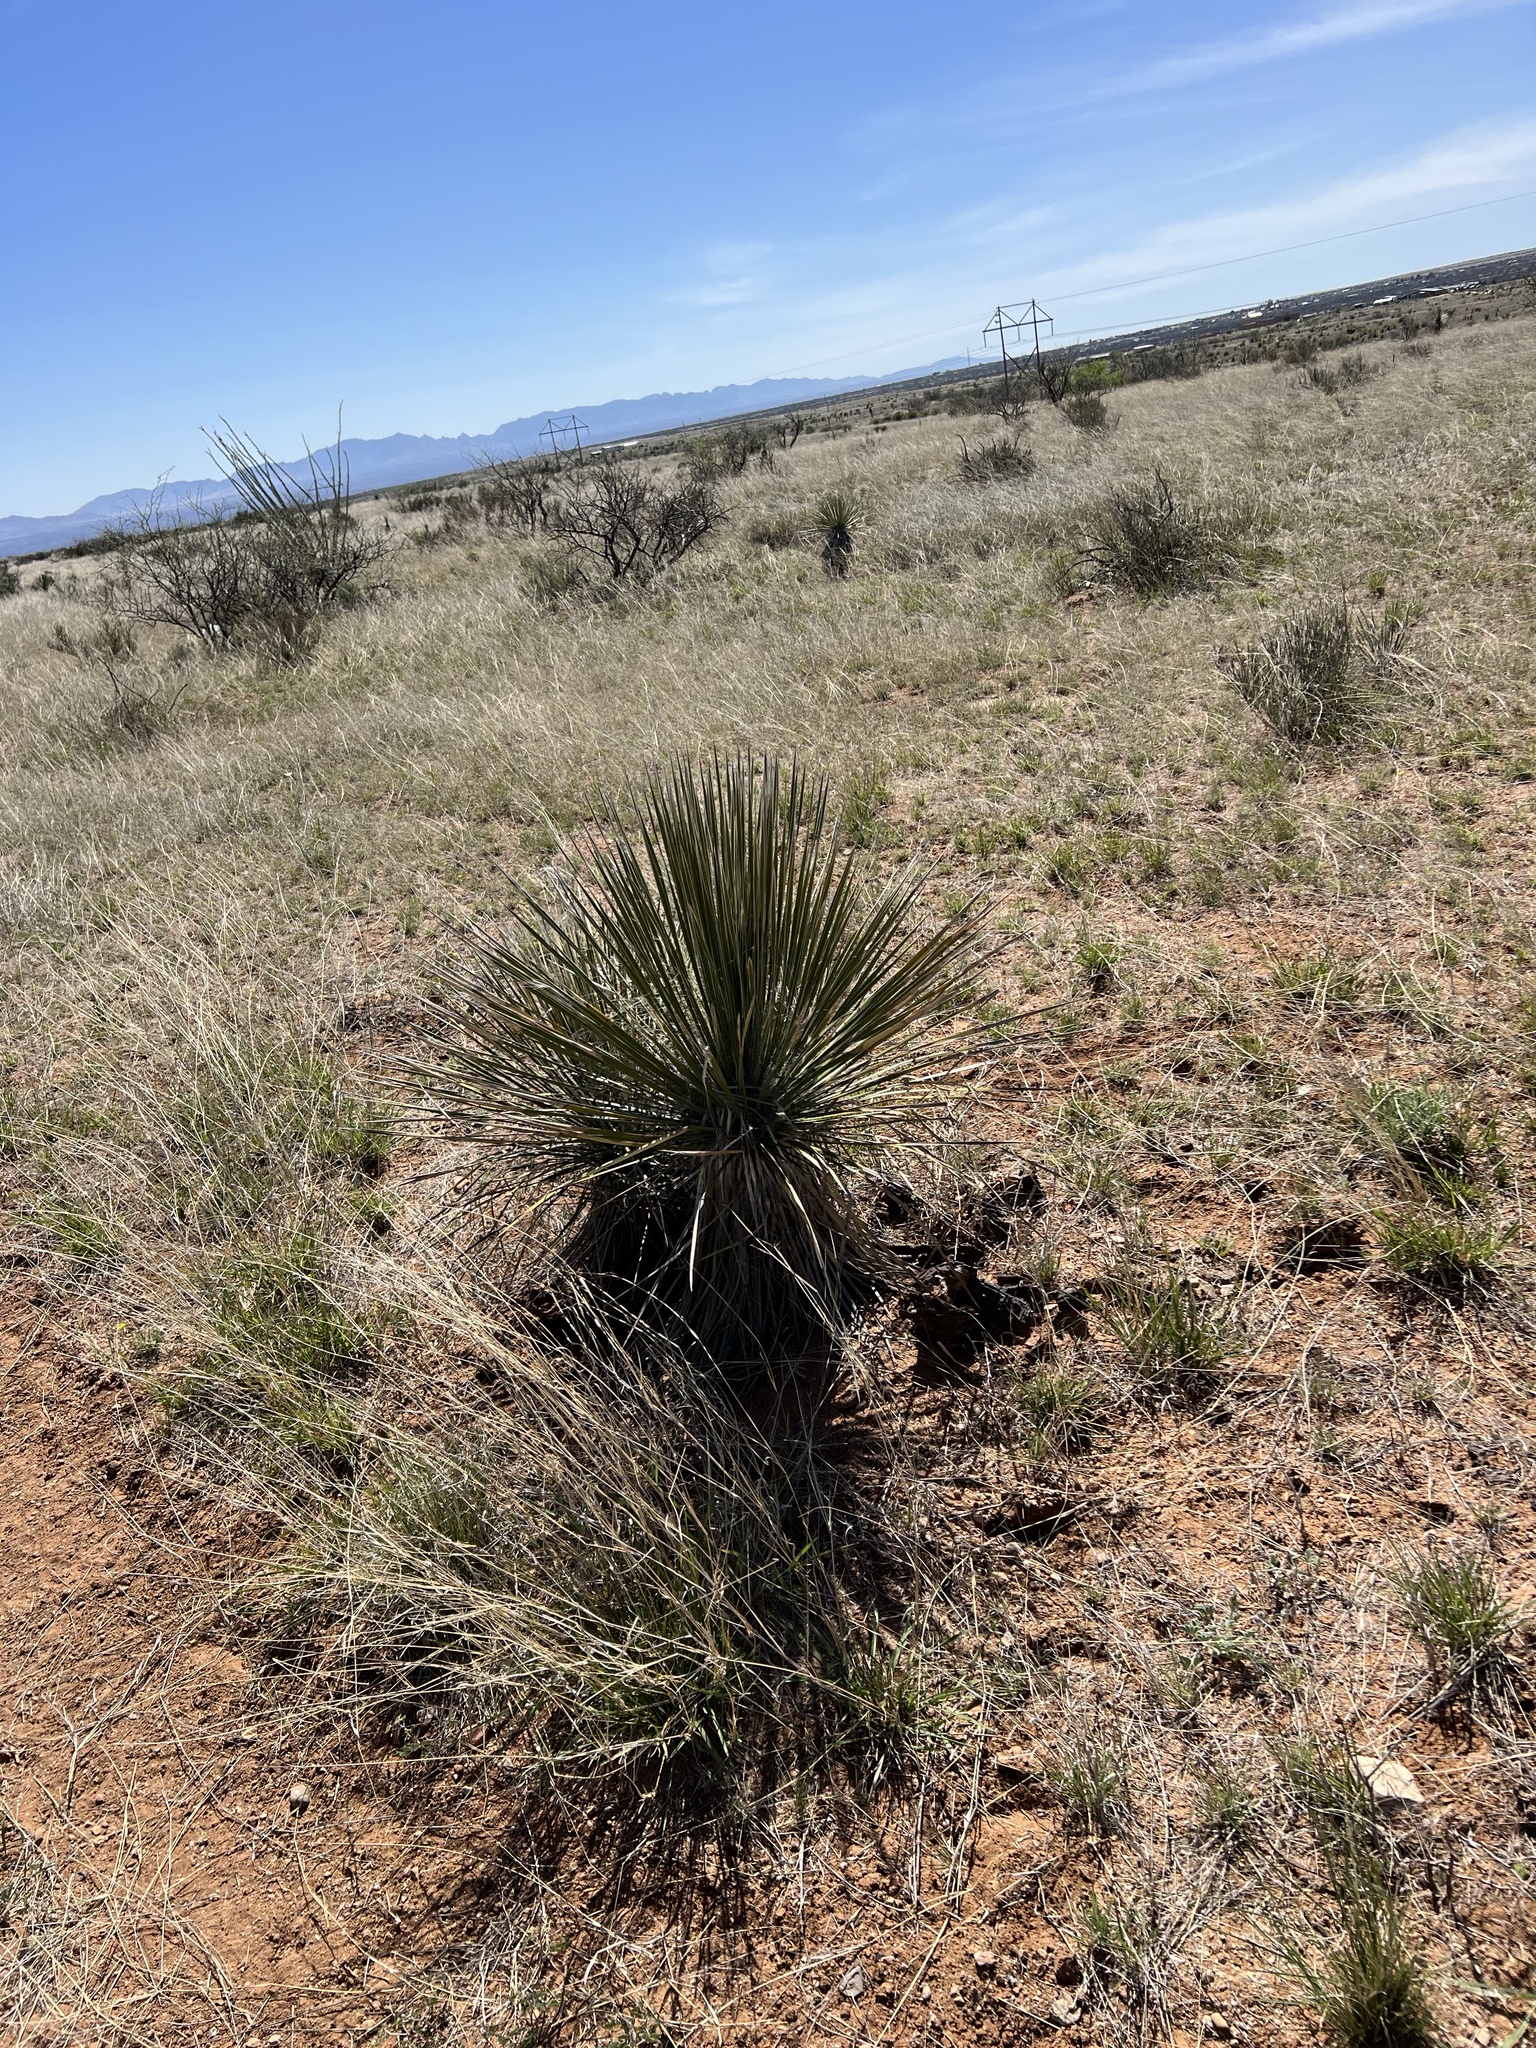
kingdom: Plantae
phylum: Tracheophyta
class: Liliopsida
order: Asparagales
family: Asparagaceae
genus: Yucca
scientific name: Yucca elata
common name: Palmella
